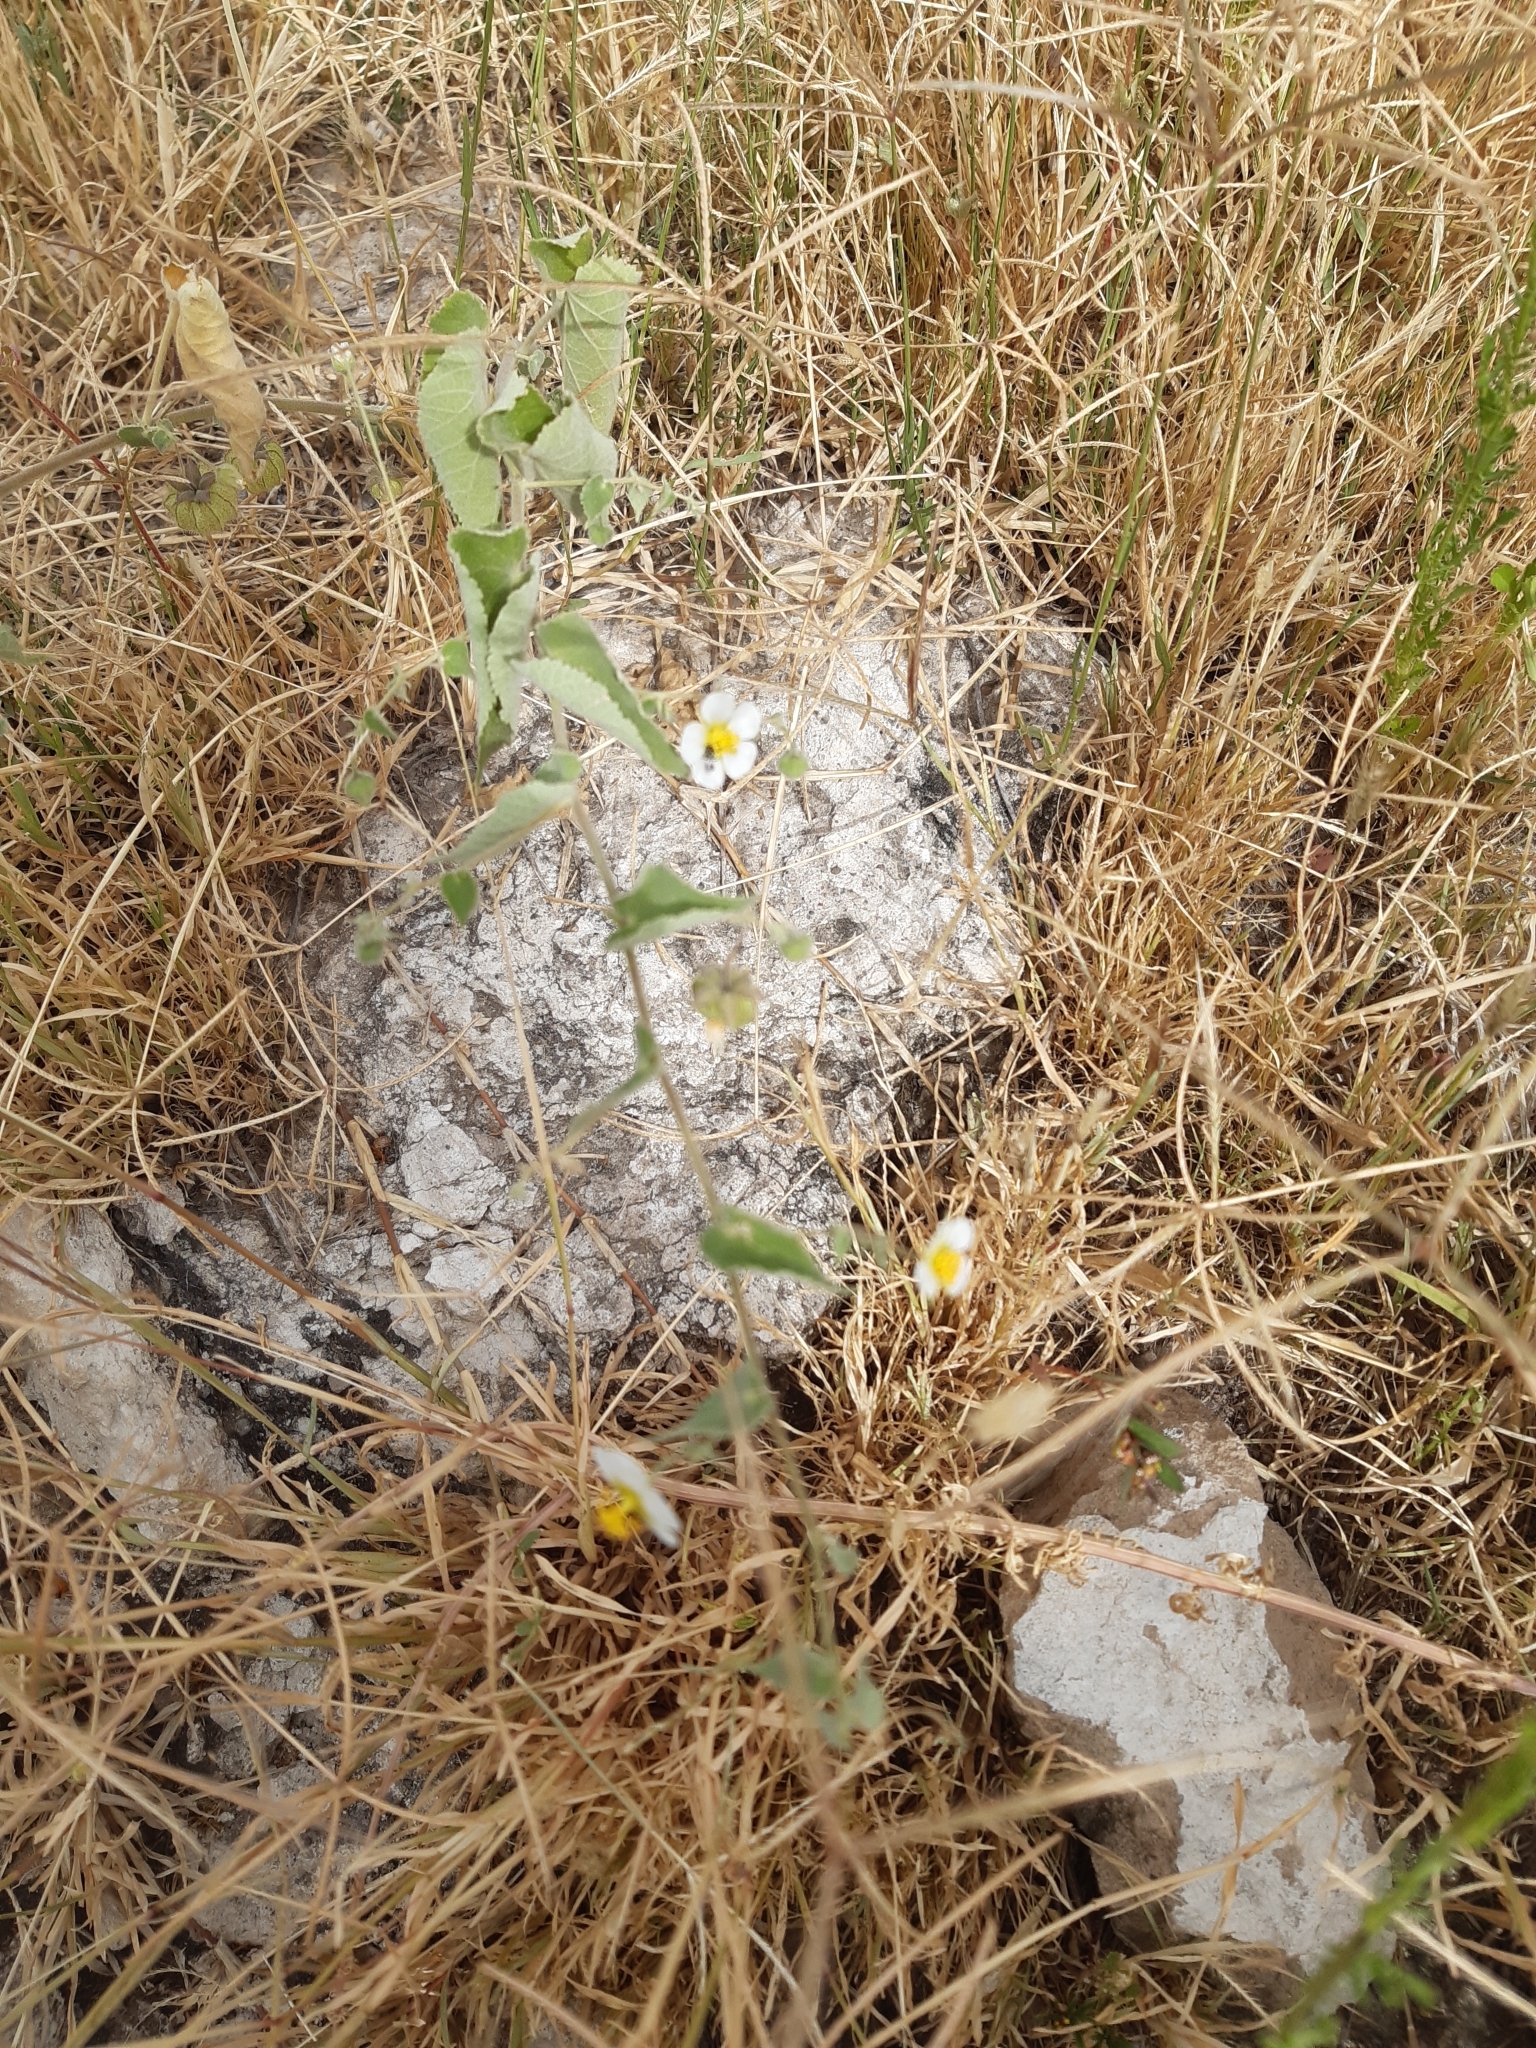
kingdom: Plantae
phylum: Tracheophyta
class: Magnoliopsida
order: Malvales
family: Malvaceae
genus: Herissantia
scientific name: Herissantia crispa
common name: Bladdermallow
